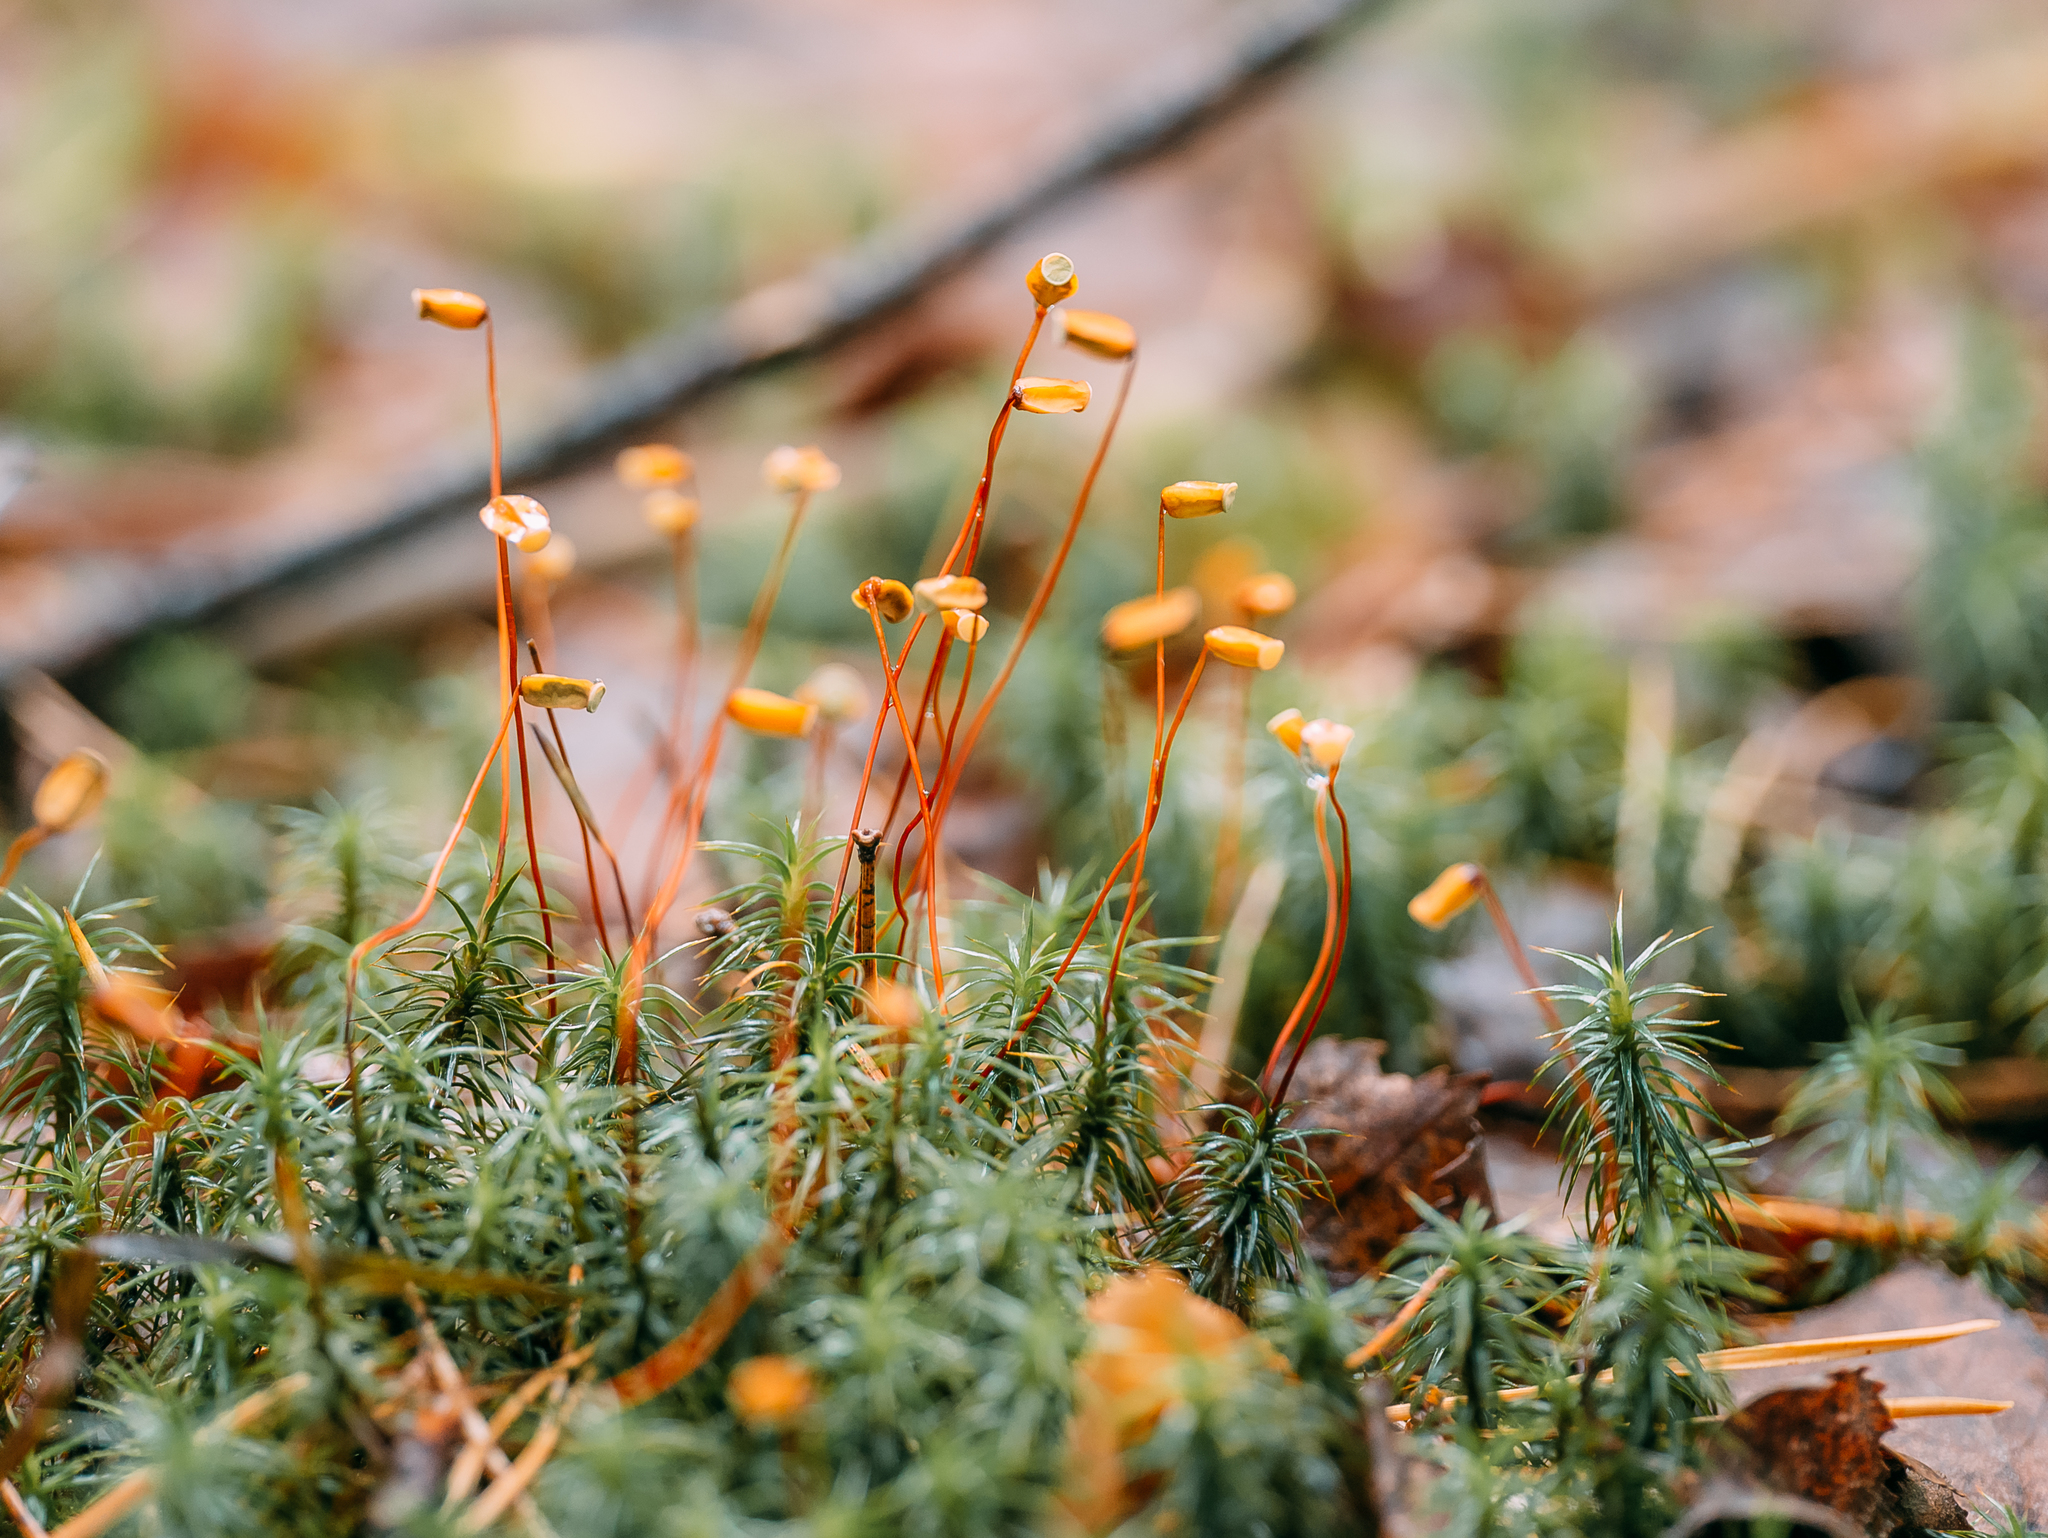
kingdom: Plantae
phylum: Bryophyta
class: Polytrichopsida
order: Polytrichales
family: Polytrichaceae
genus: Polytrichum
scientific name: Polytrichum juniperinum
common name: Juniper haircap moss
